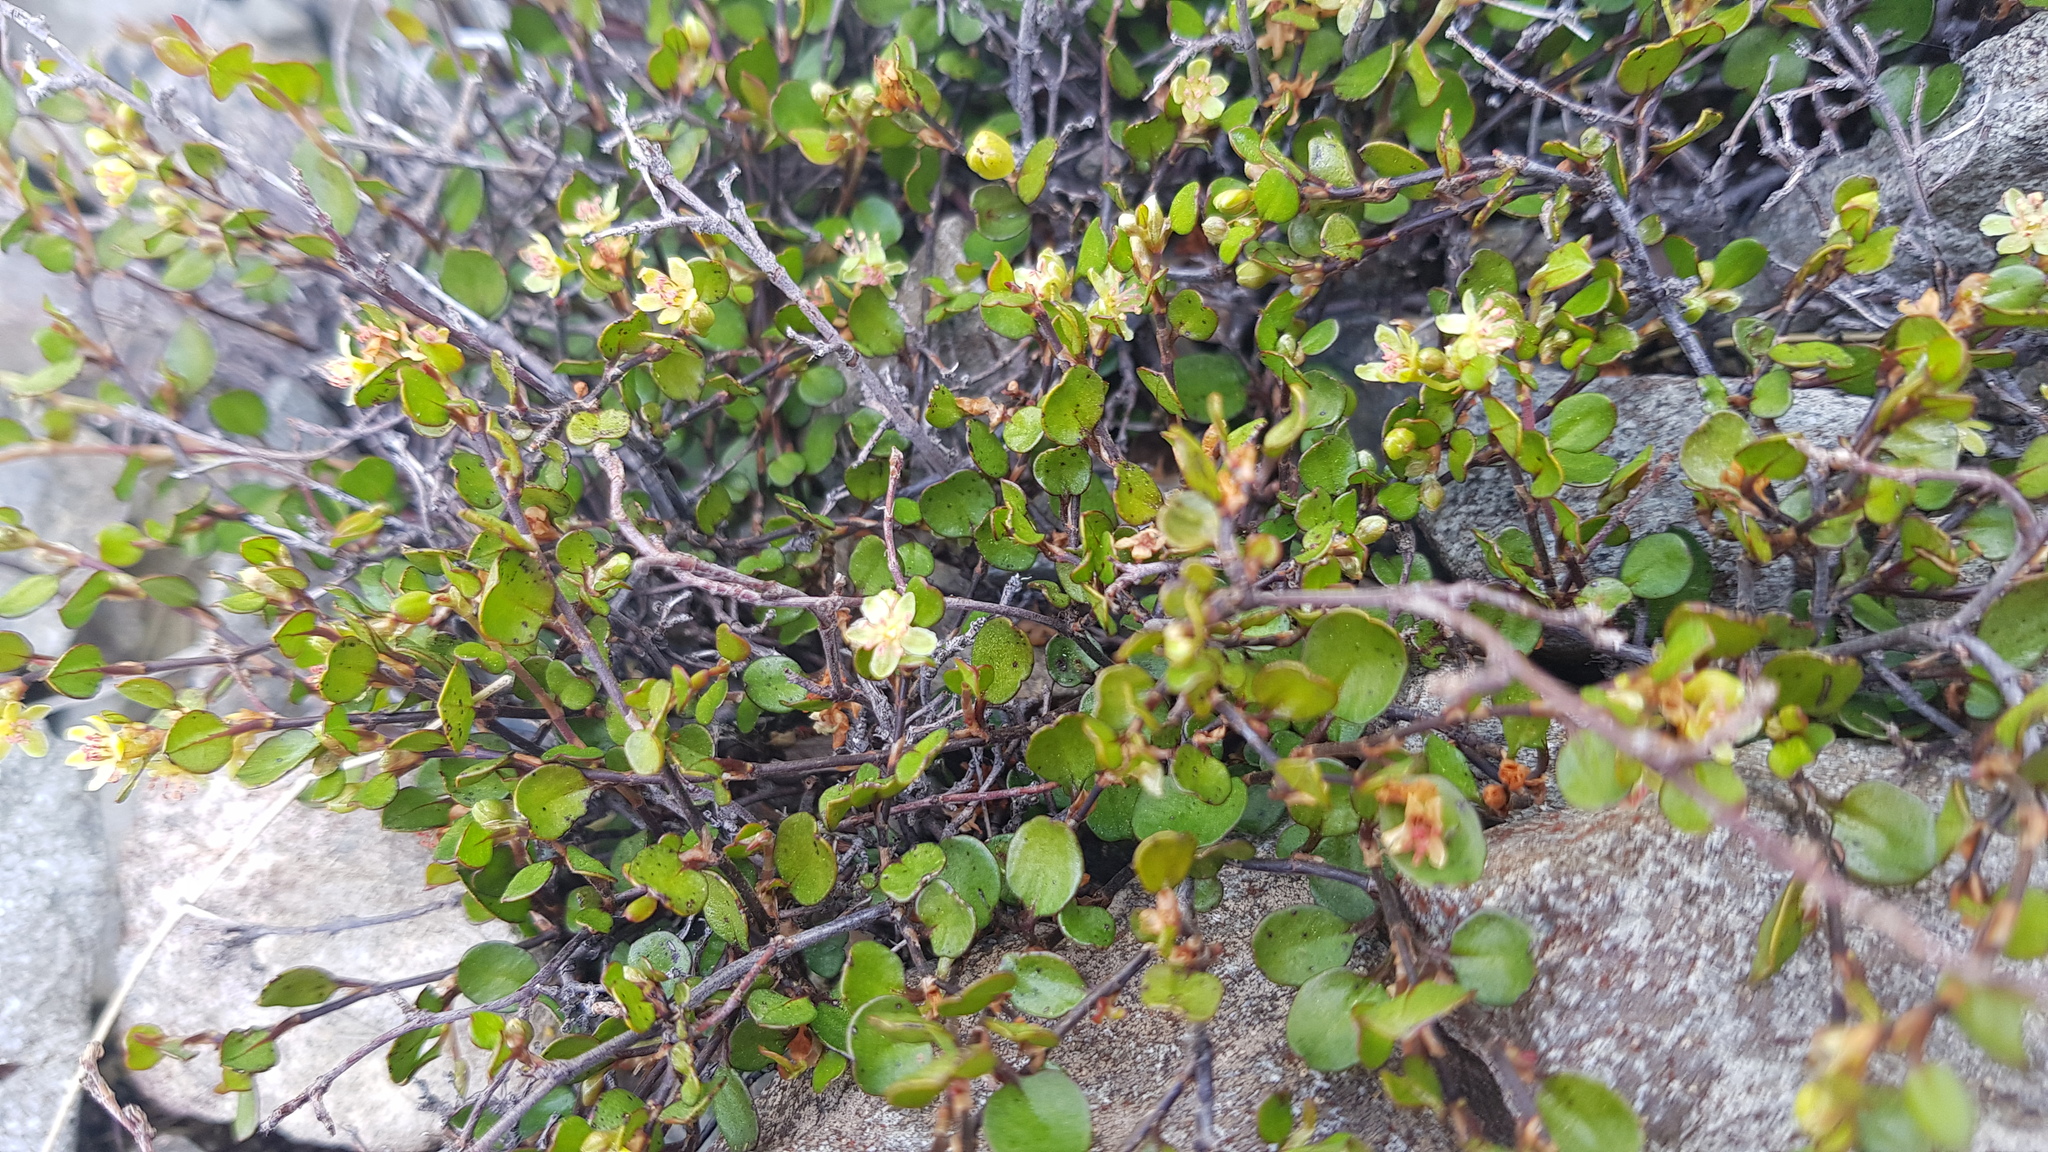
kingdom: Plantae
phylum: Tracheophyta
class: Magnoliopsida
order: Caryophyllales
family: Polygonaceae
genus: Muehlenbeckia
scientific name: Muehlenbeckia axillaris
